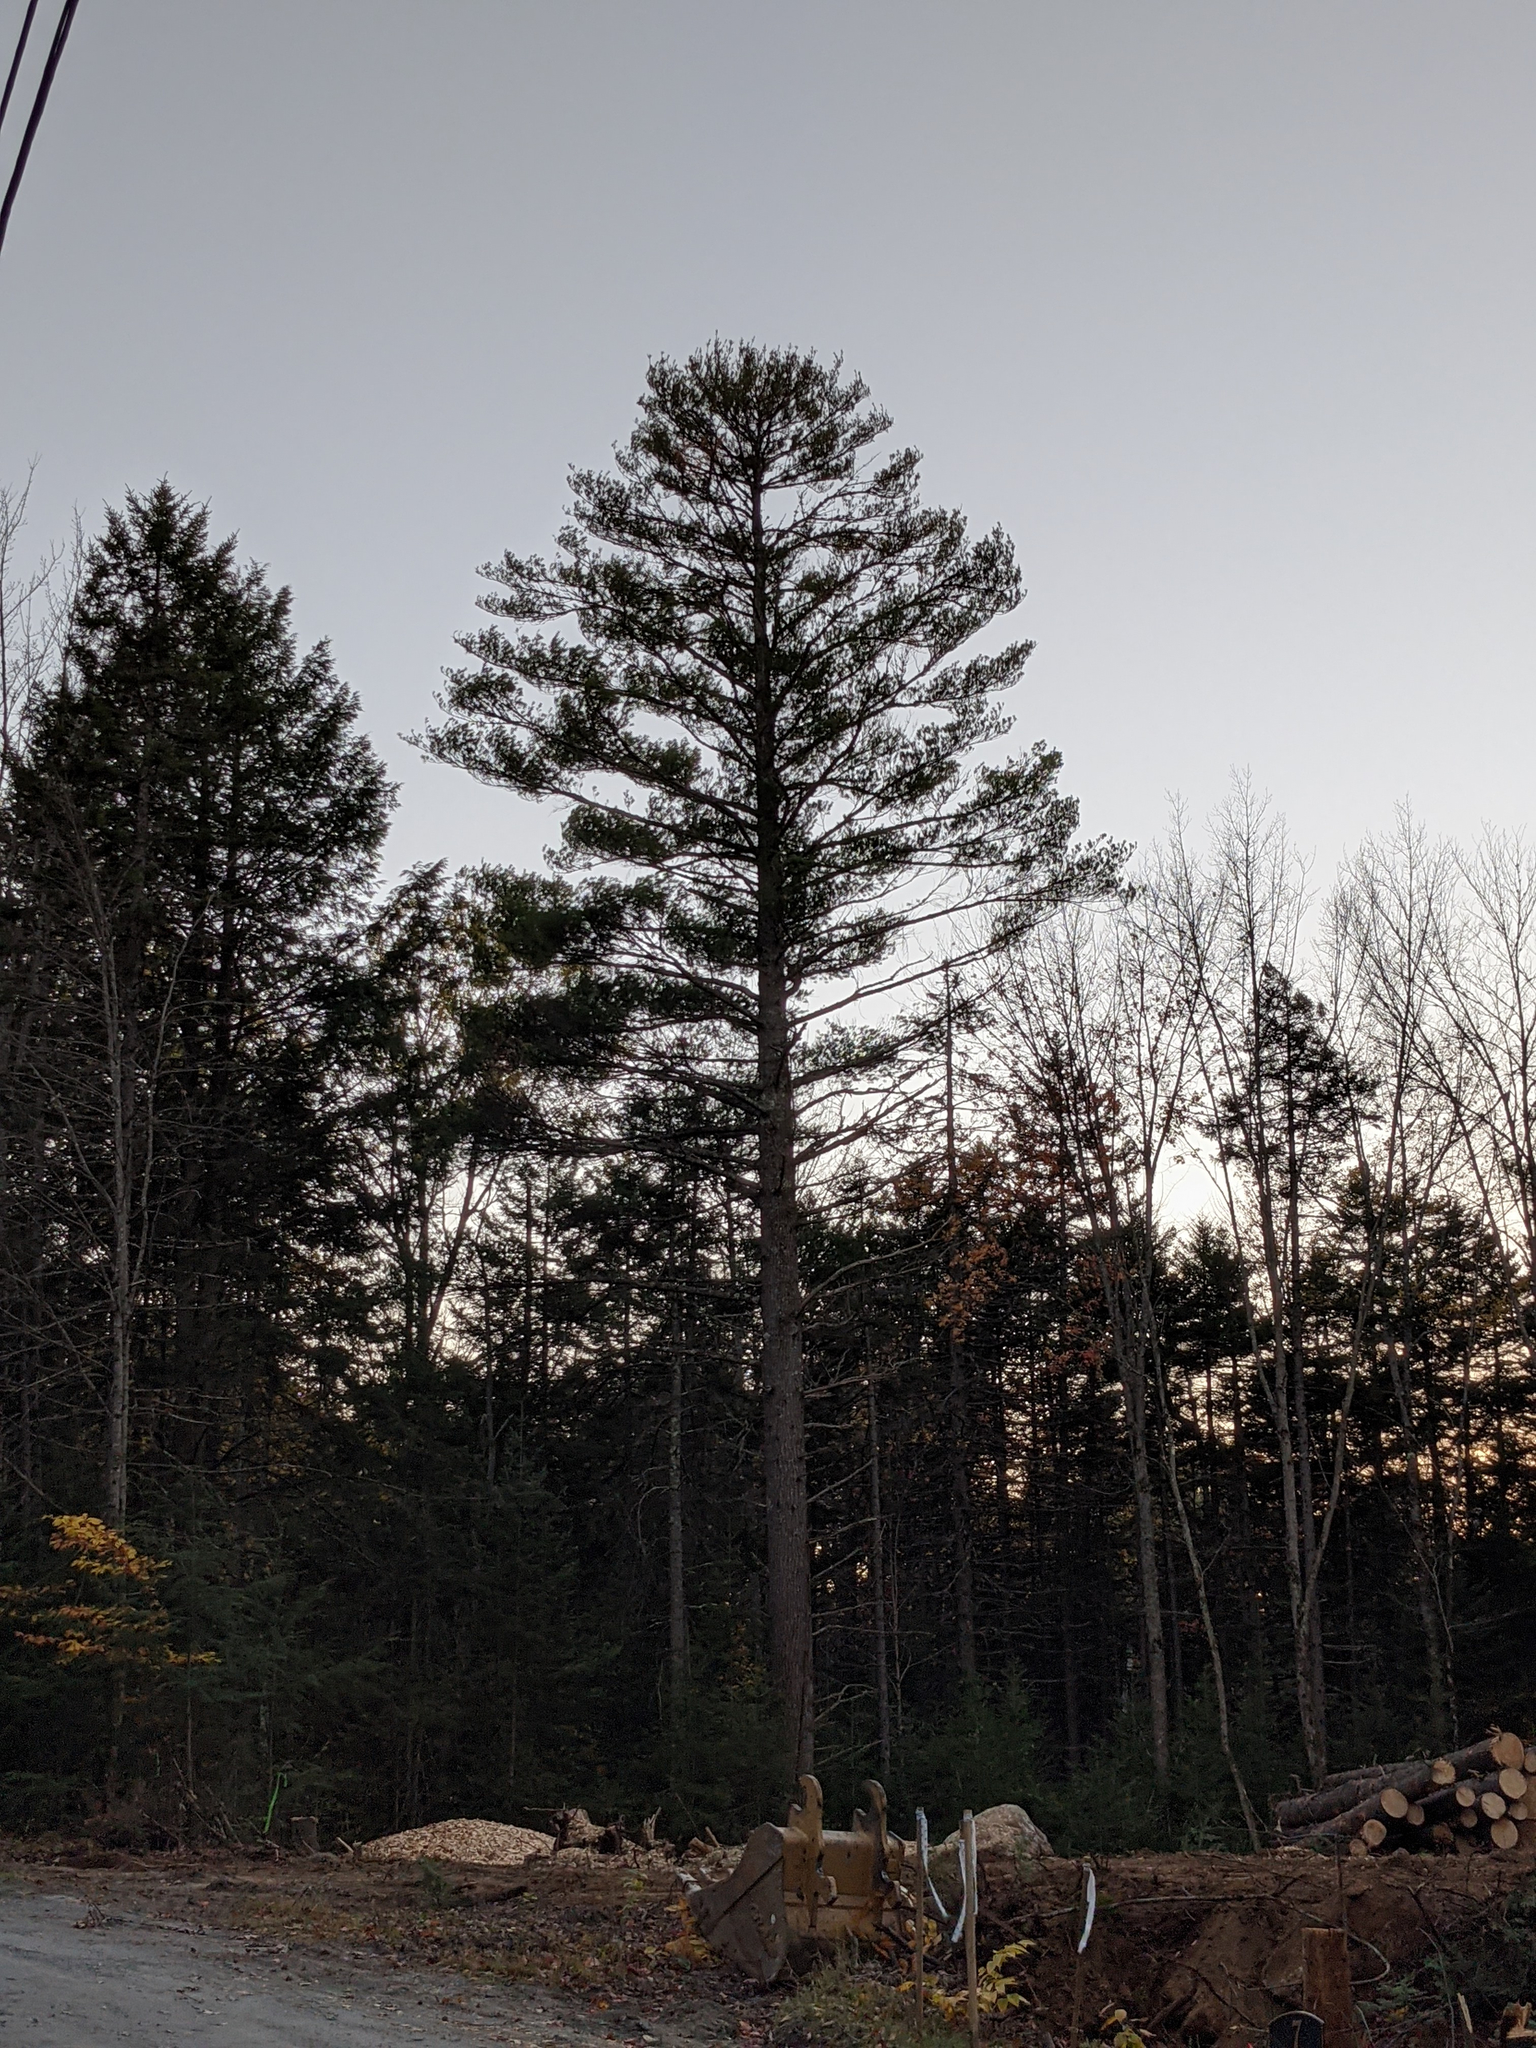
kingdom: Plantae
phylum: Tracheophyta
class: Pinopsida
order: Pinales
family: Pinaceae
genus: Pinus
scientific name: Pinus strobus
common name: Weymouth pine
